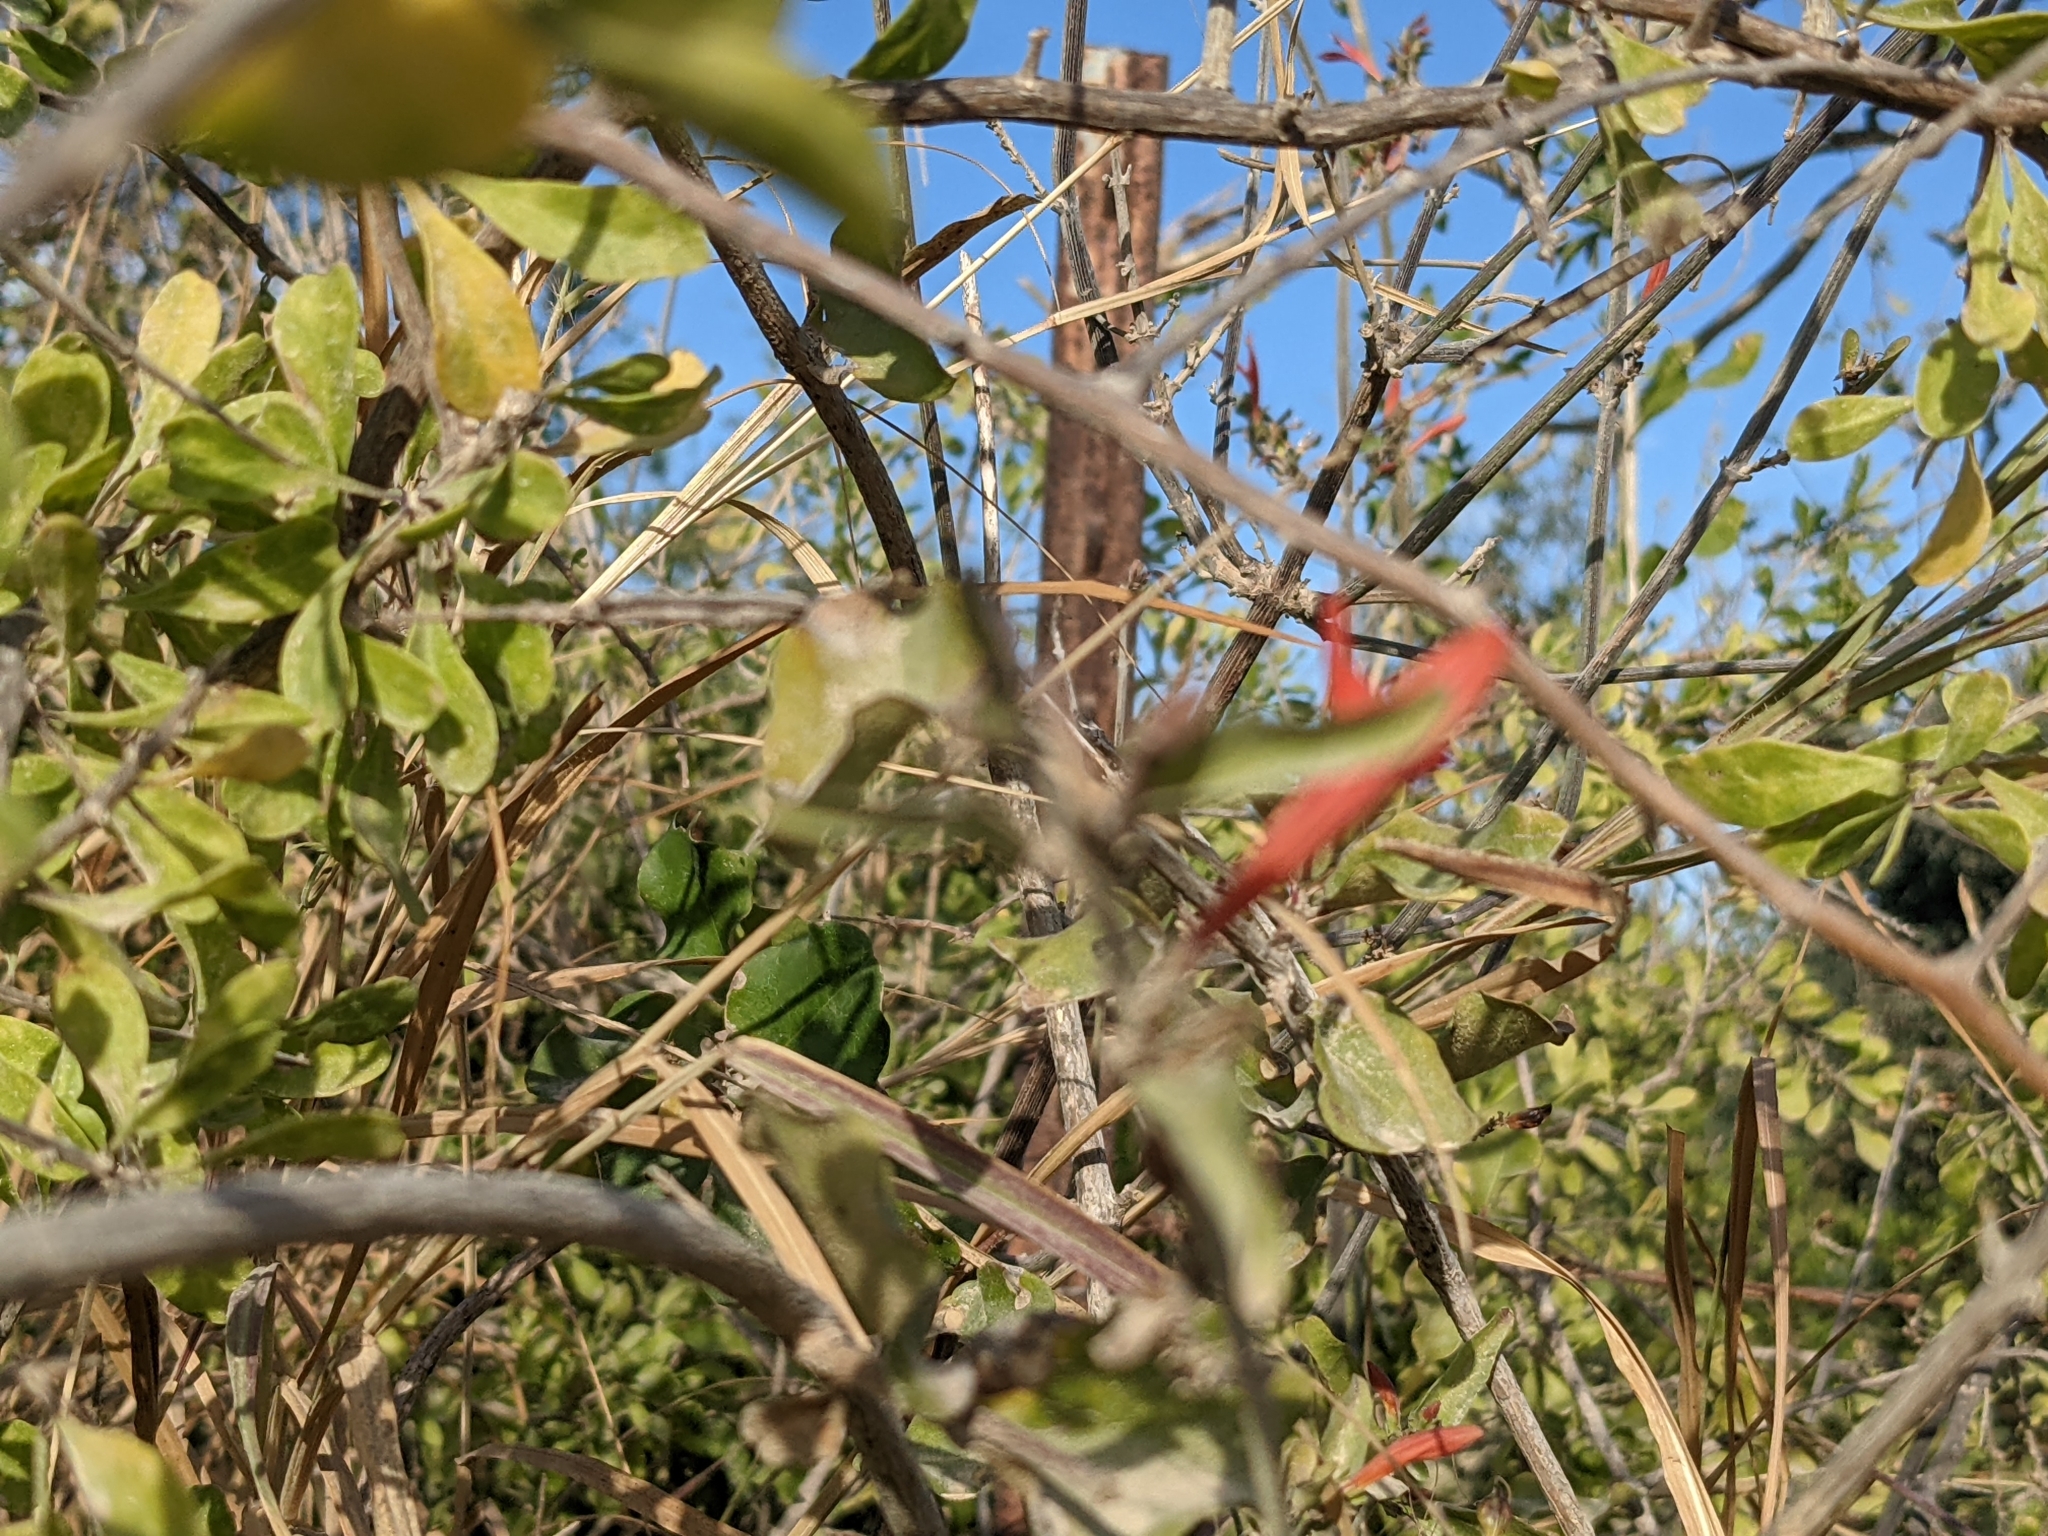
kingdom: Plantae
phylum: Tracheophyta
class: Magnoliopsida
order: Lamiales
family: Acanthaceae
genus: Justicia
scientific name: Justicia californica
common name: Chuparosa-honeysuckle
